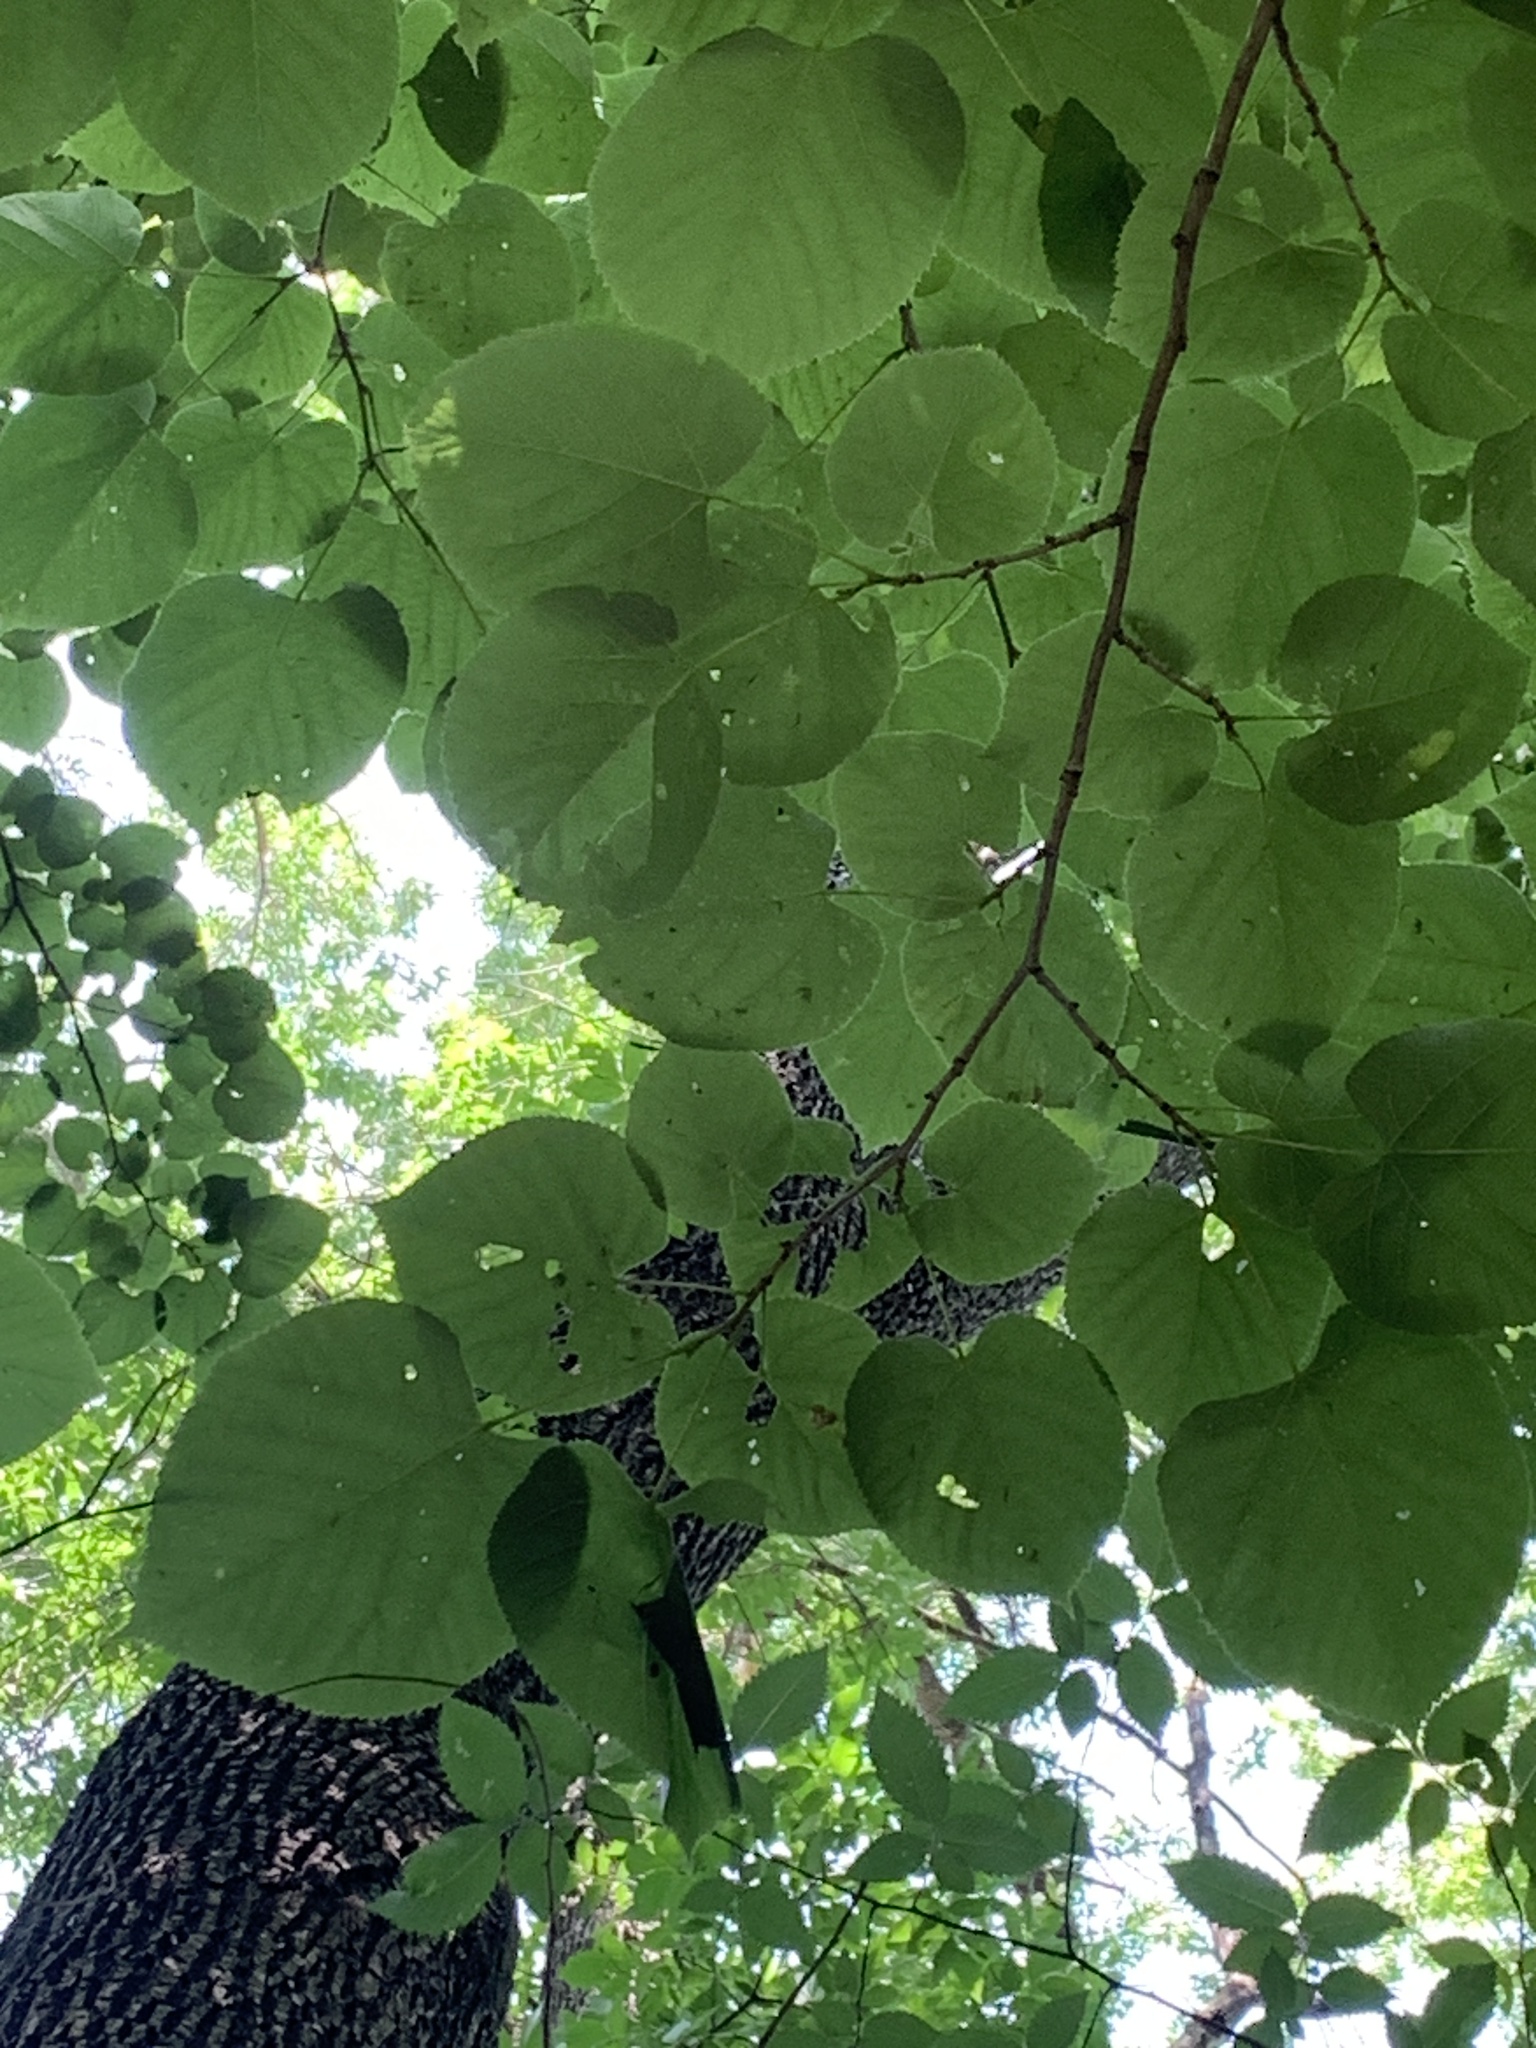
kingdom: Plantae
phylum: Tracheophyta
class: Magnoliopsida
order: Malvales
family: Malvaceae
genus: Tilia
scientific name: Tilia americana
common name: Basswood
